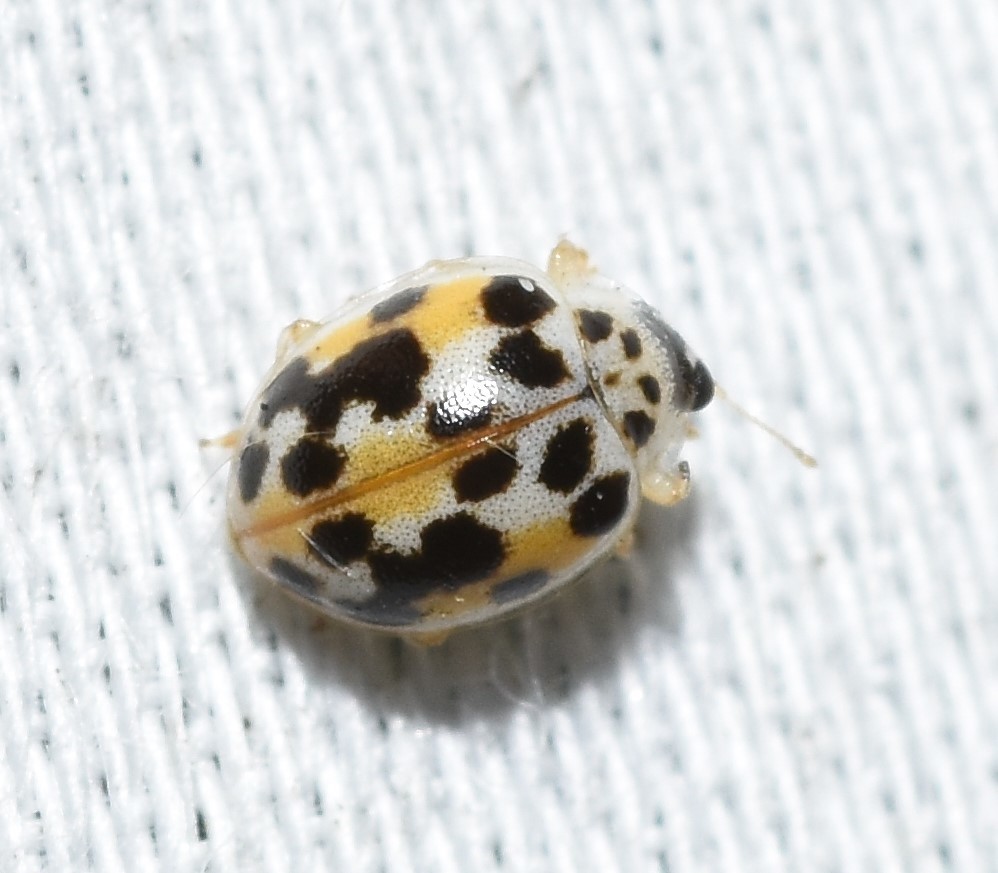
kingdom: Animalia
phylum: Arthropoda
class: Insecta
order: Coleoptera
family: Coccinellidae
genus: Psyllobora
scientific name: Psyllobora vigintimaculata
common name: Ladybird beetle
